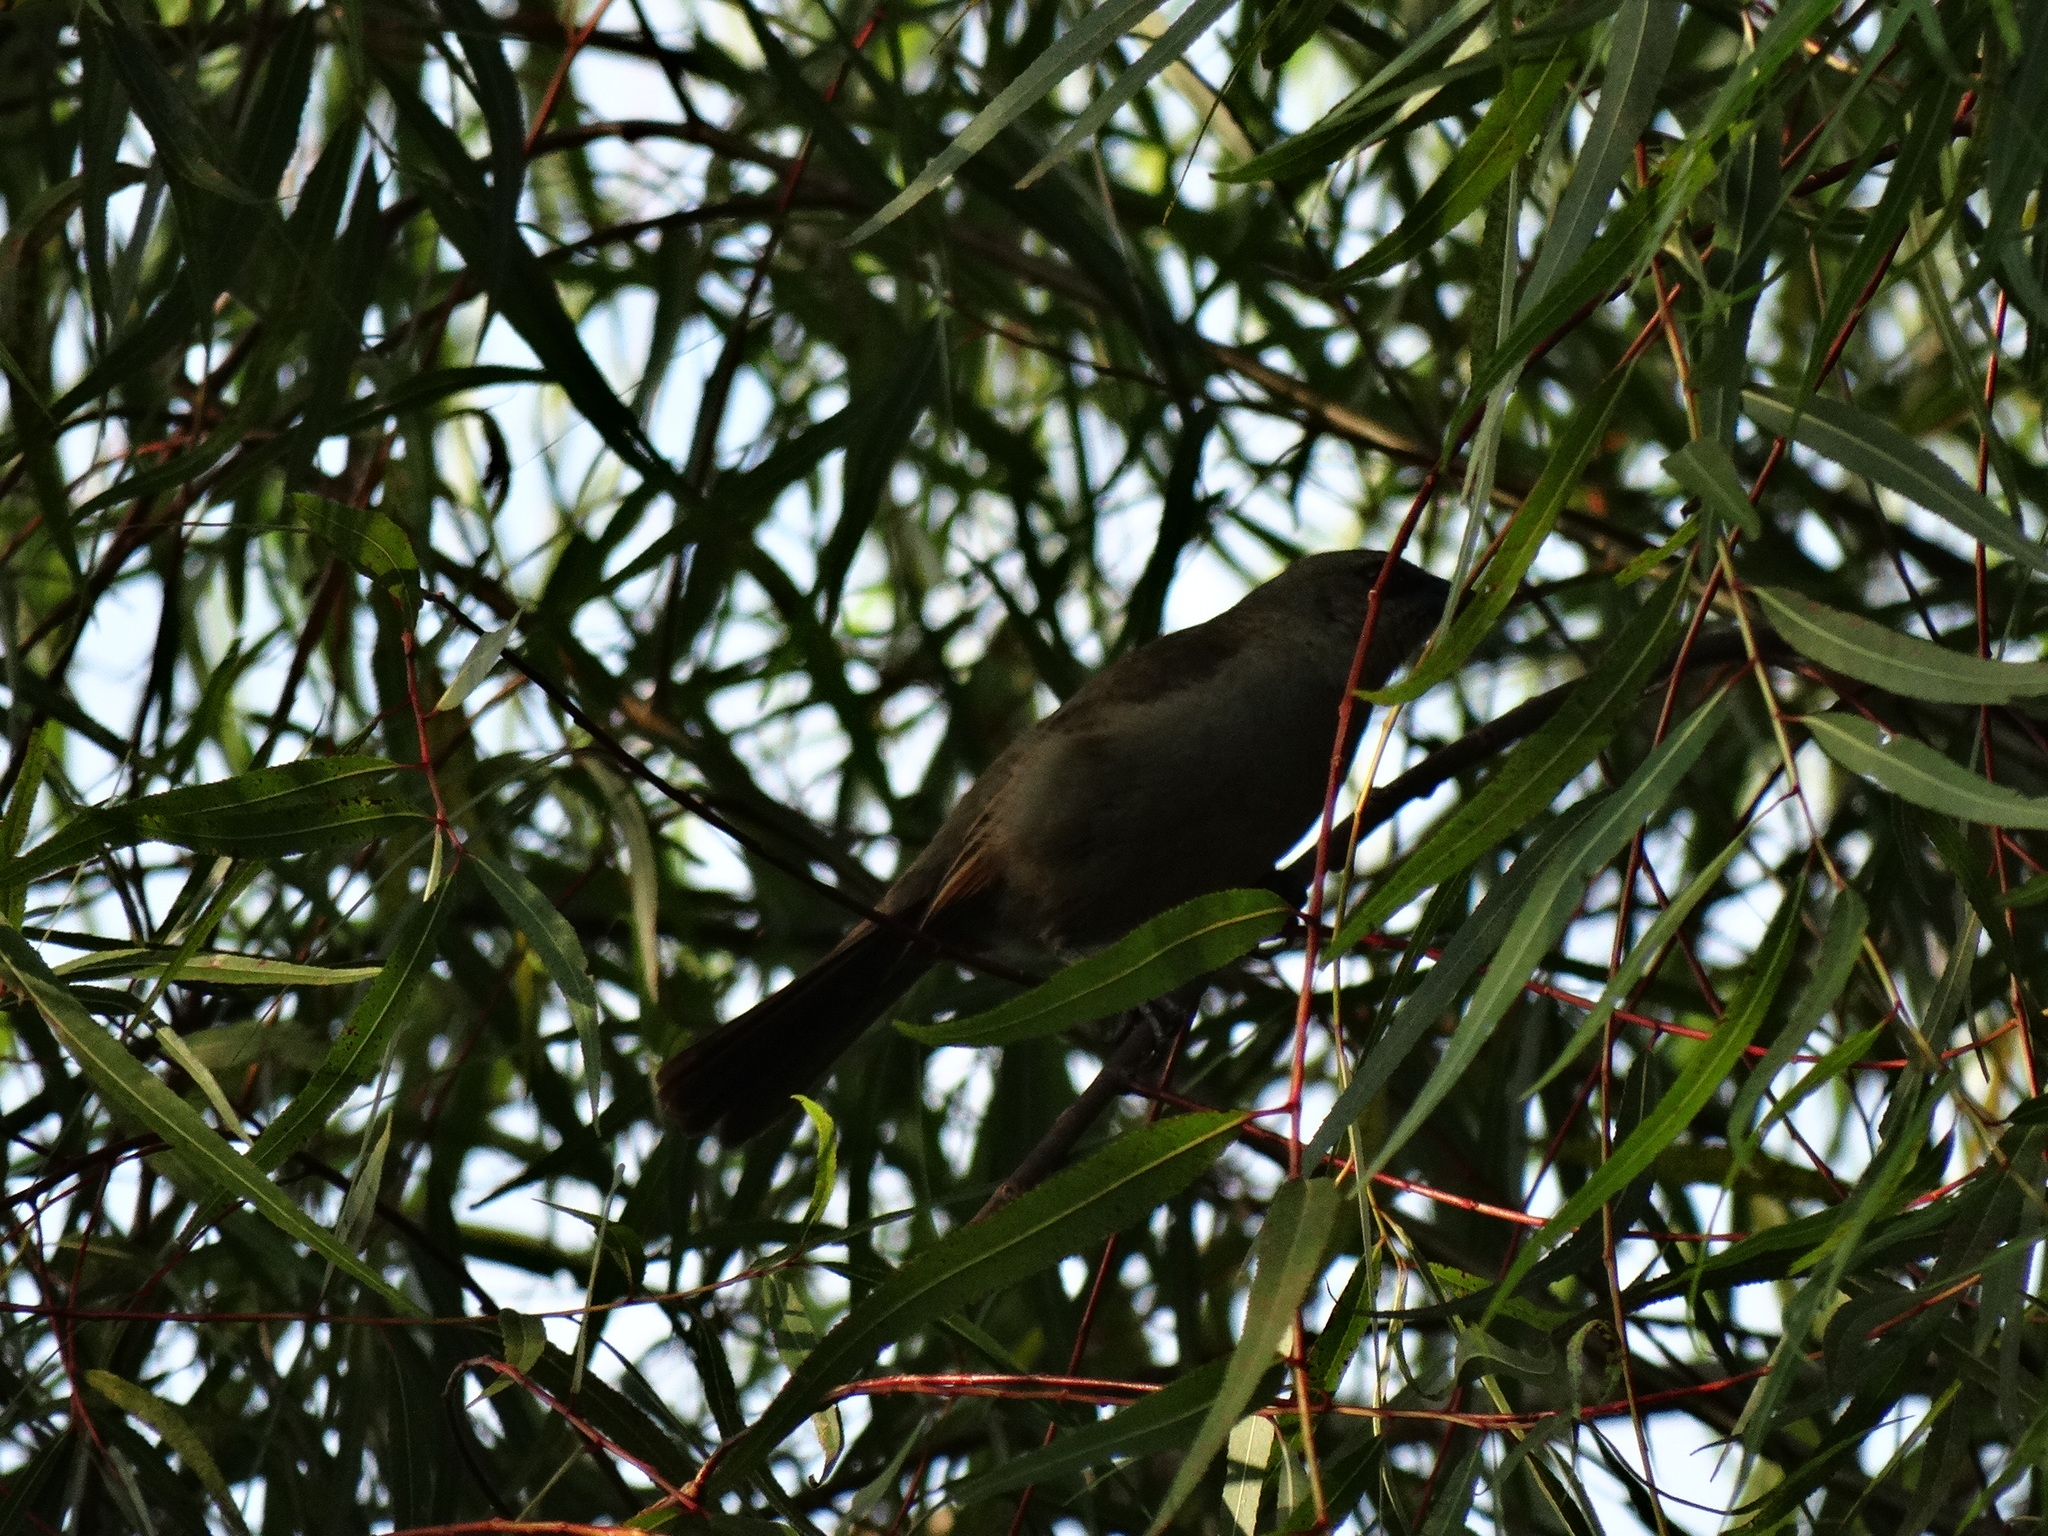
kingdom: Animalia
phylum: Chordata
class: Aves
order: Passeriformes
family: Icteridae
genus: Agelaioides
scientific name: Agelaioides badius
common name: Baywing
